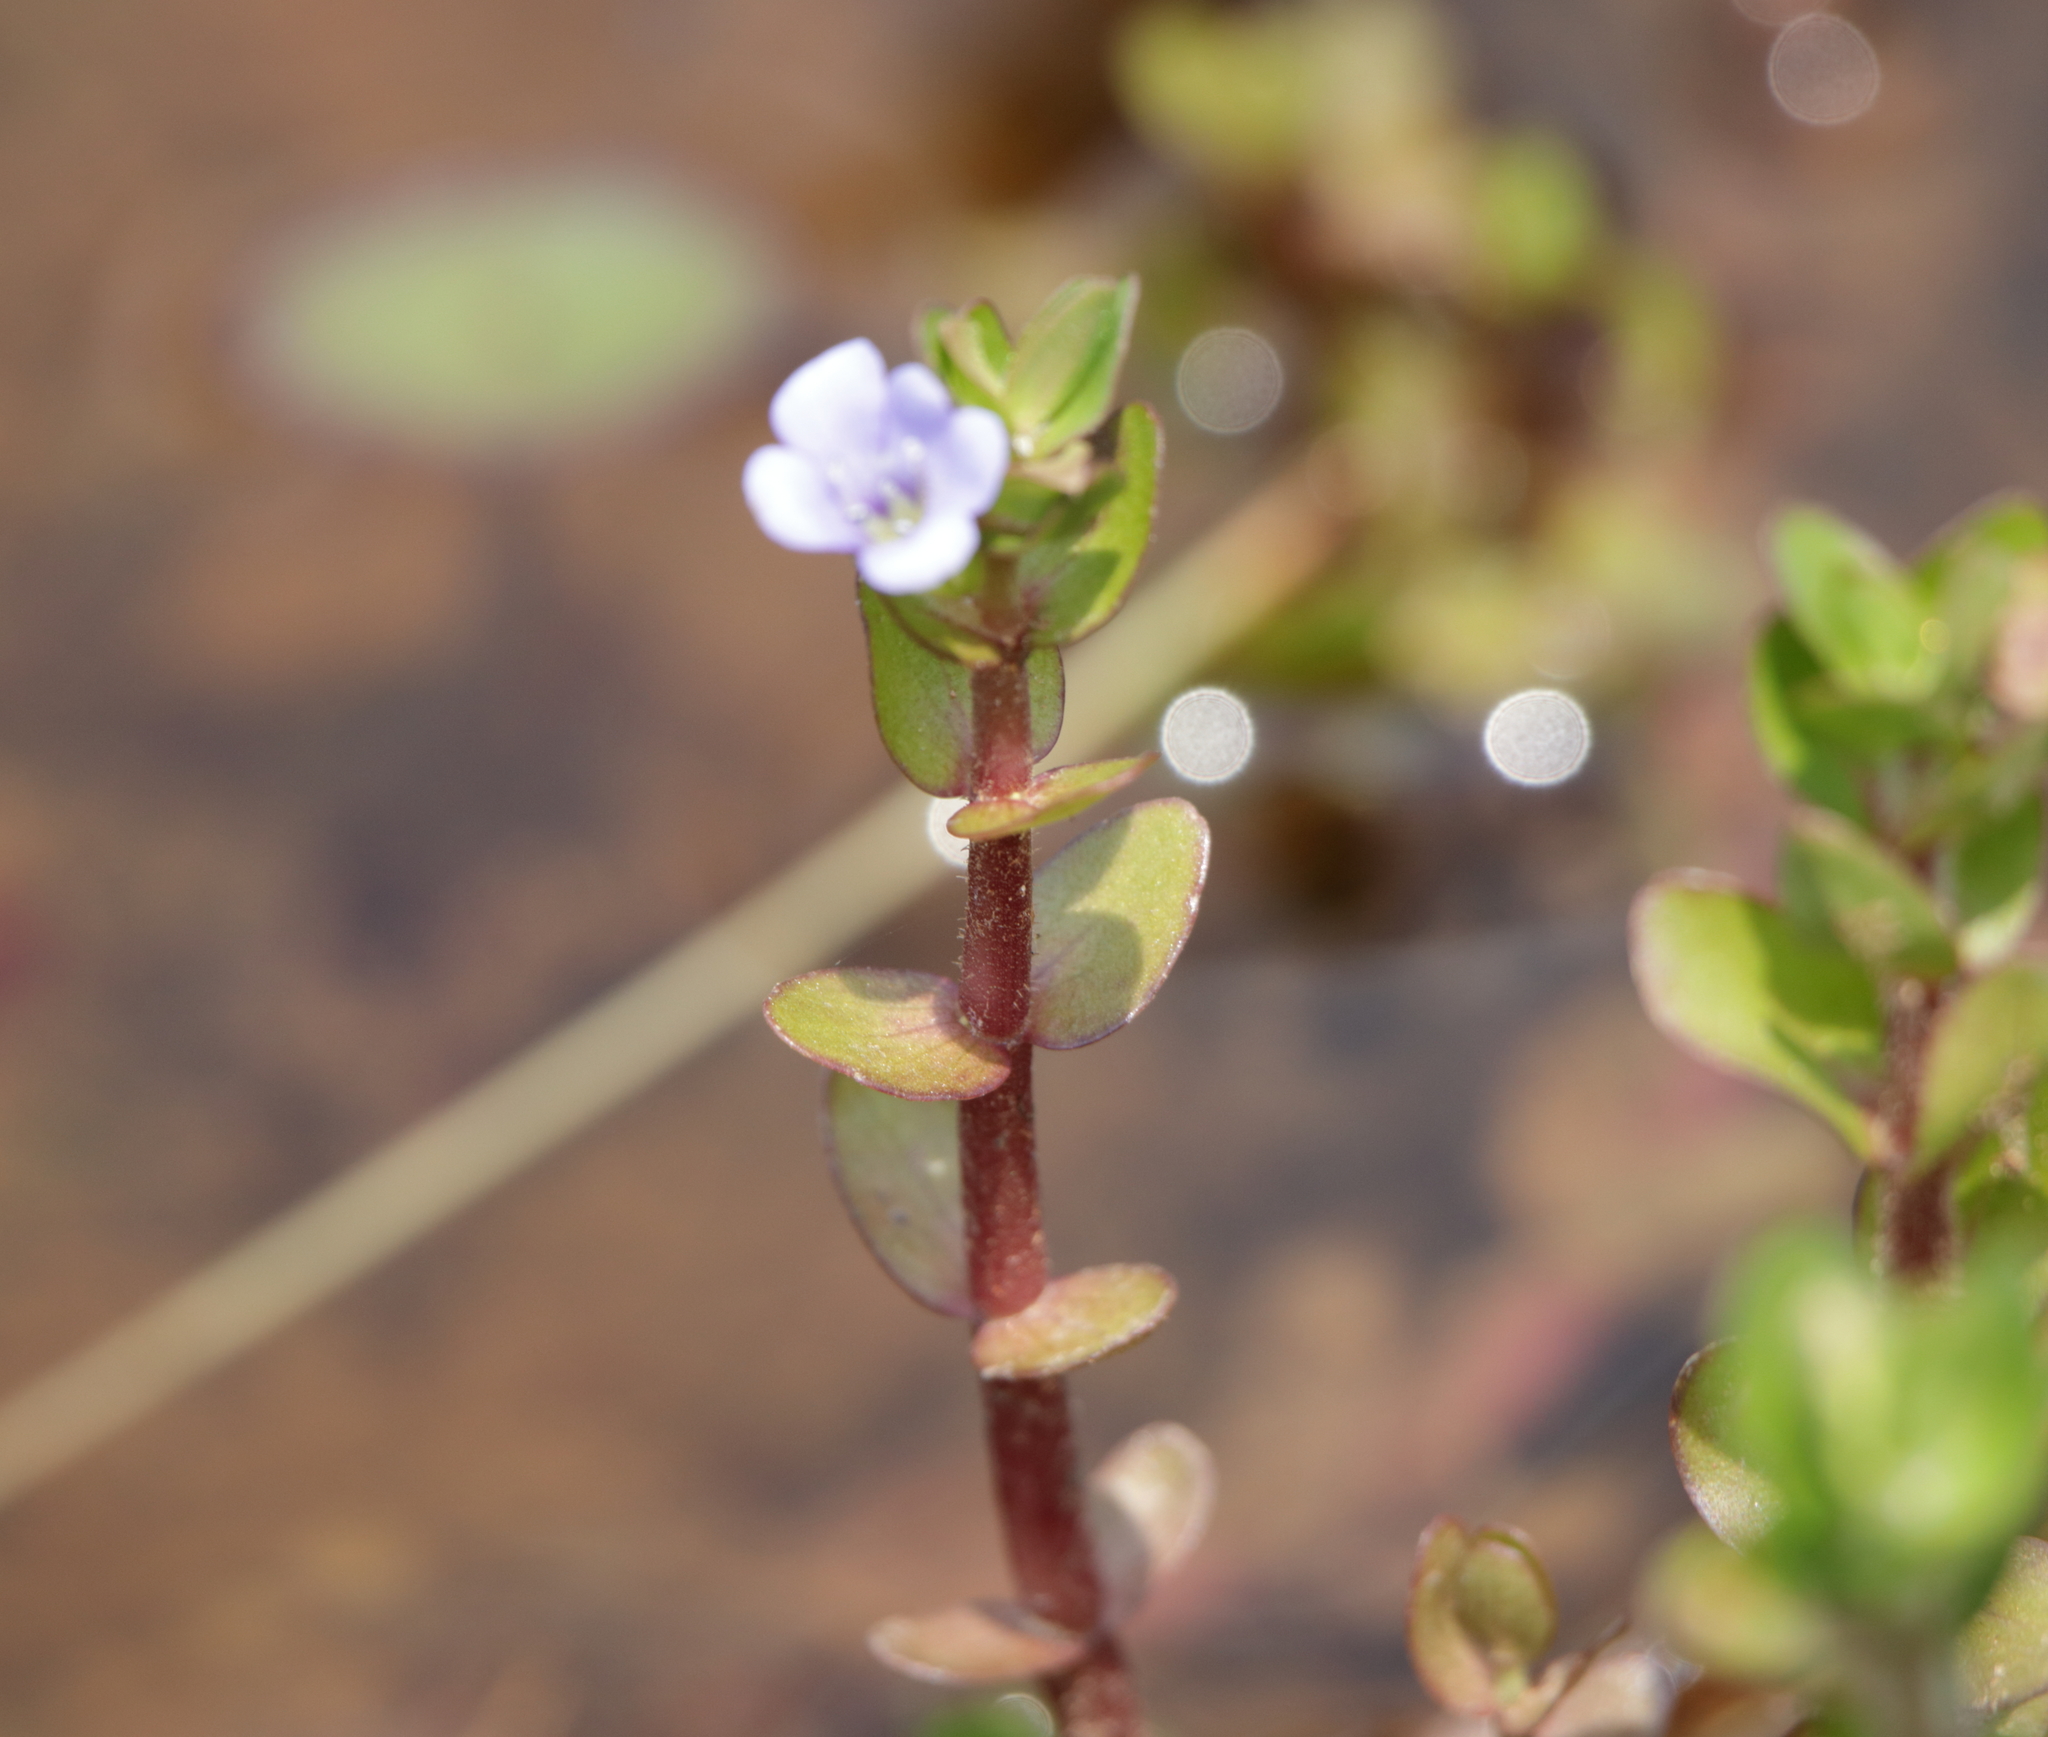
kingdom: Plantae
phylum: Tracheophyta
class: Magnoliopsida
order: Lamiales
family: Plantaginaceae
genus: Bacopa
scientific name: Bacopa caroliniana
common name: Lemon bacopa
